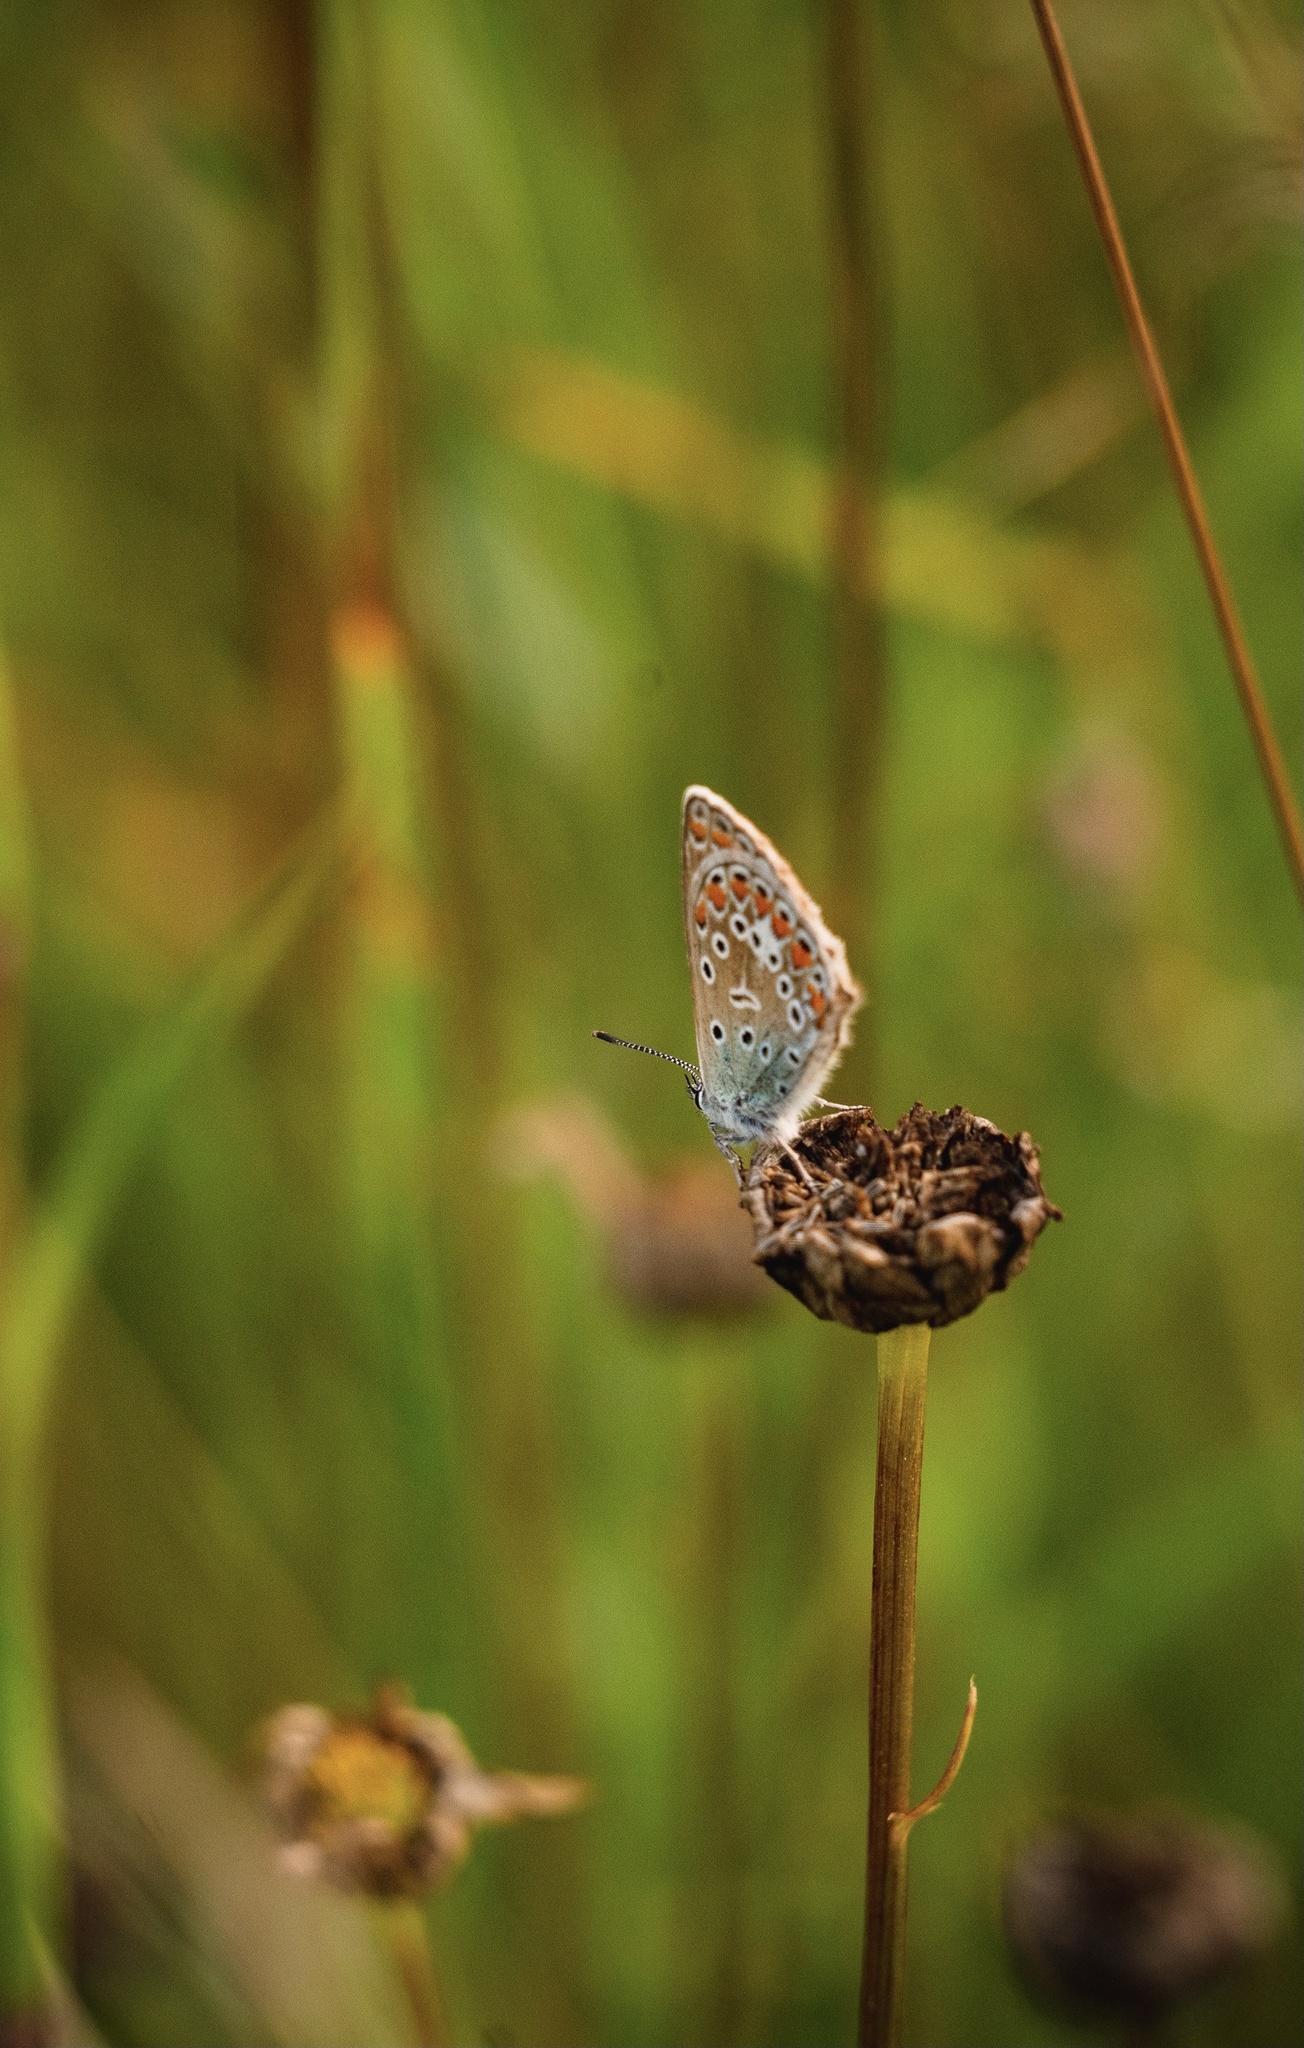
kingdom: Animalia
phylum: Arthropoda
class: Insecta
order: Lepidoptera
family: Lycaenidae
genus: Polyommatus
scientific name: Polyommatus icarus
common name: Common blue
